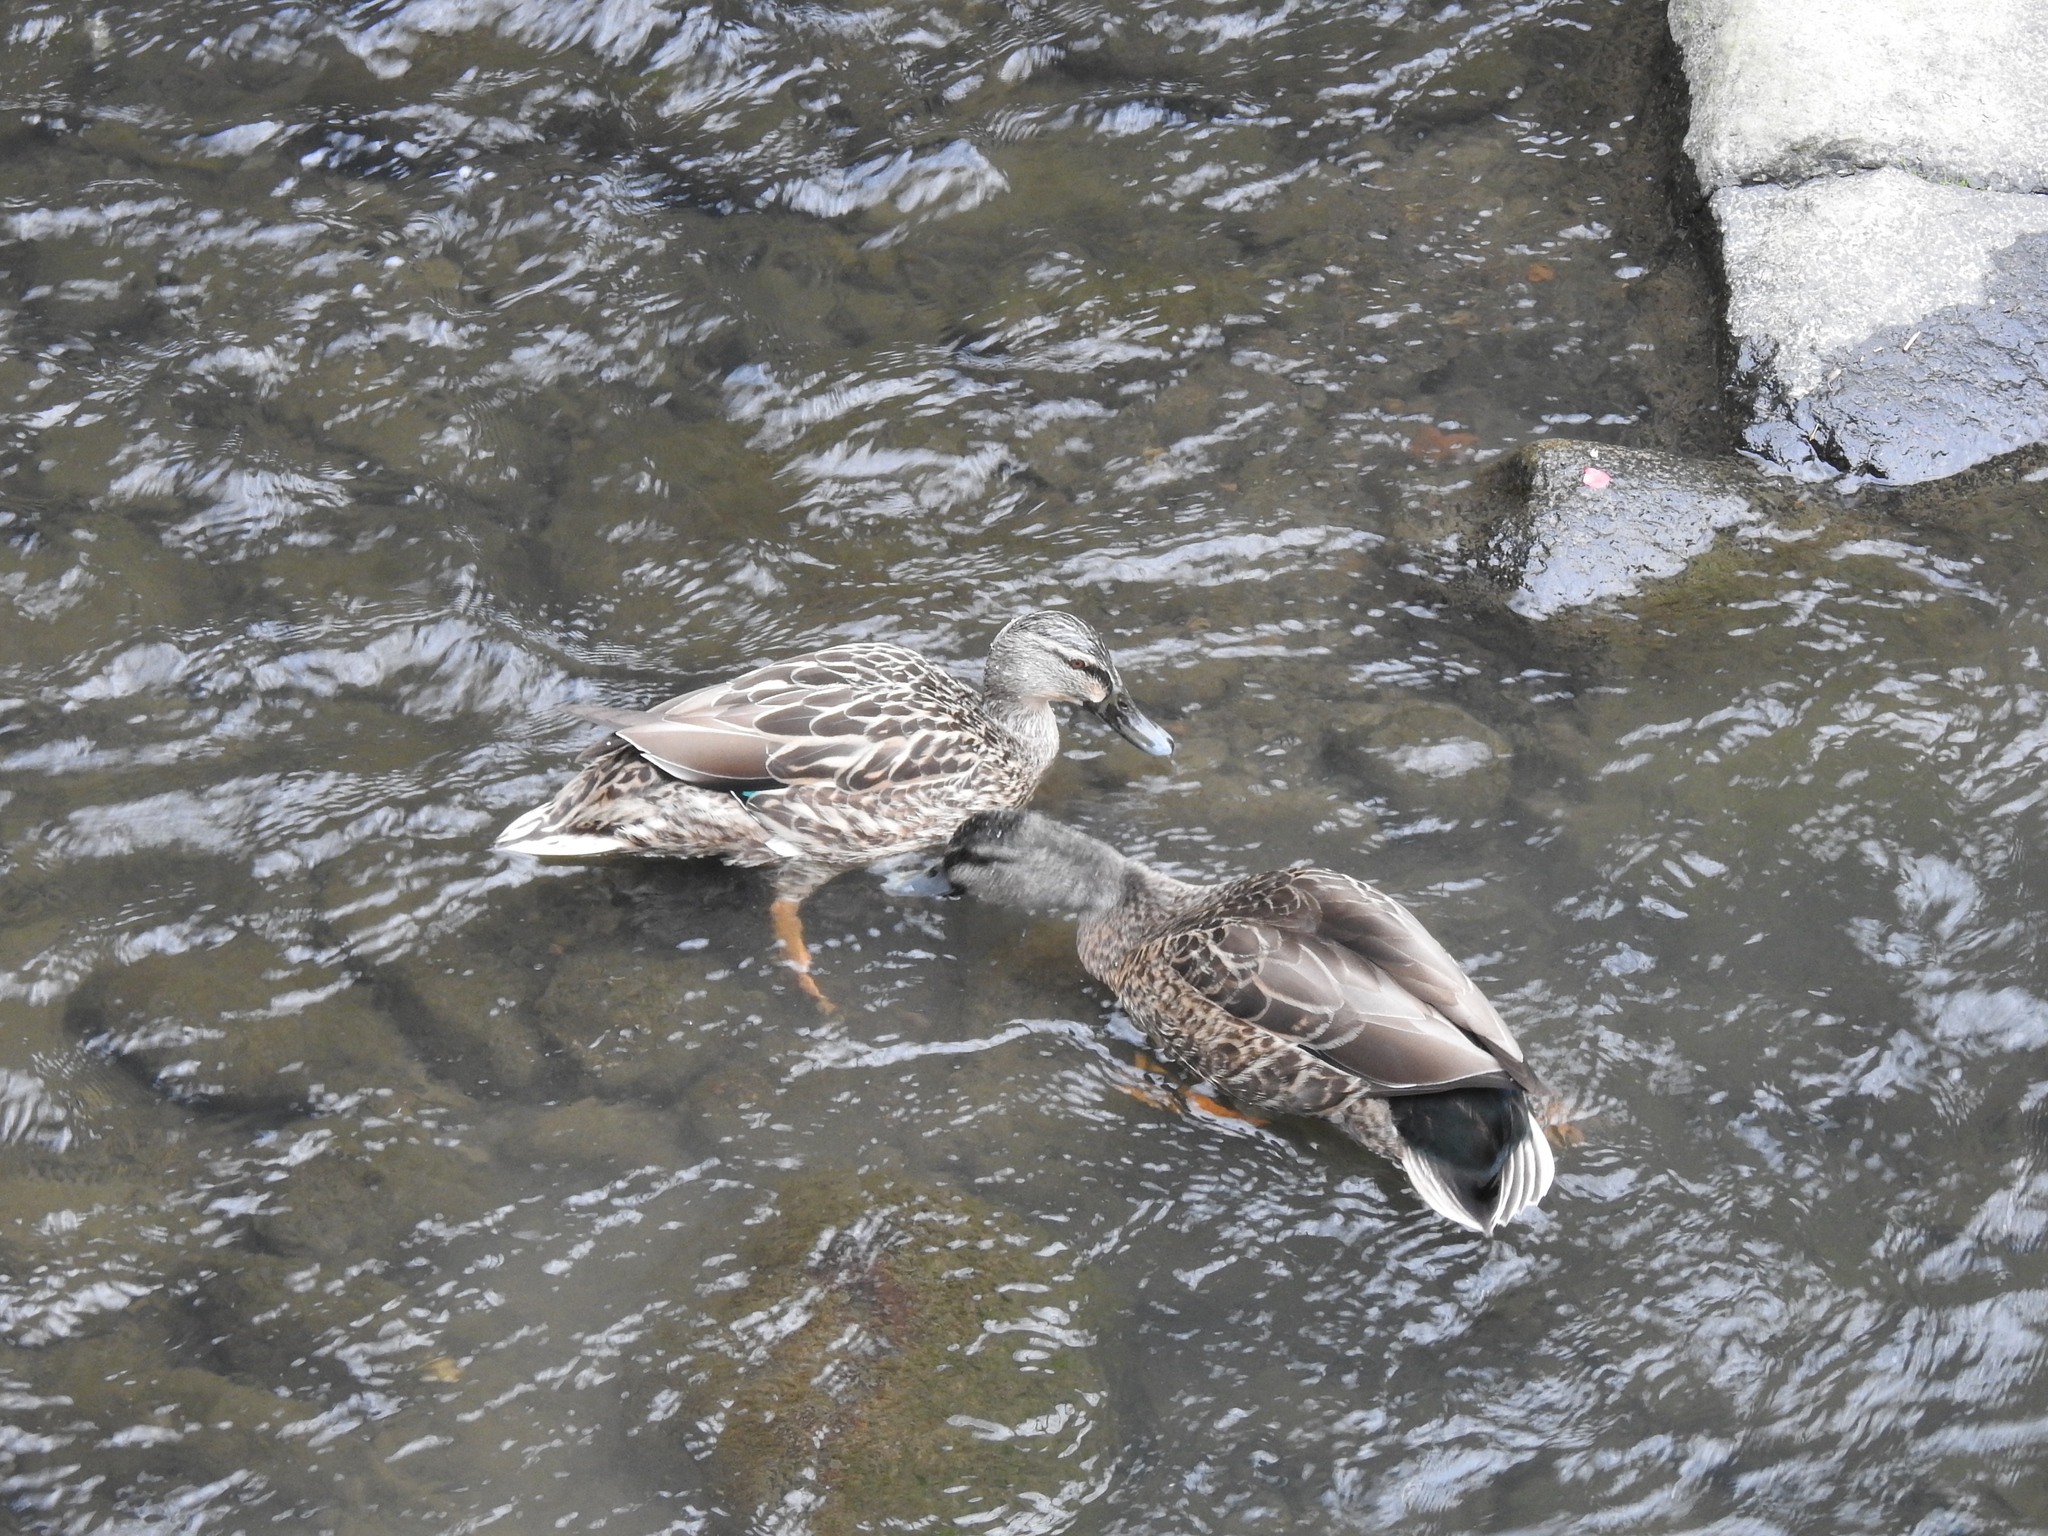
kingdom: Animalia
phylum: Chordata
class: Aves
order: Anseriformes
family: Anatidae
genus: Anas
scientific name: Anas
